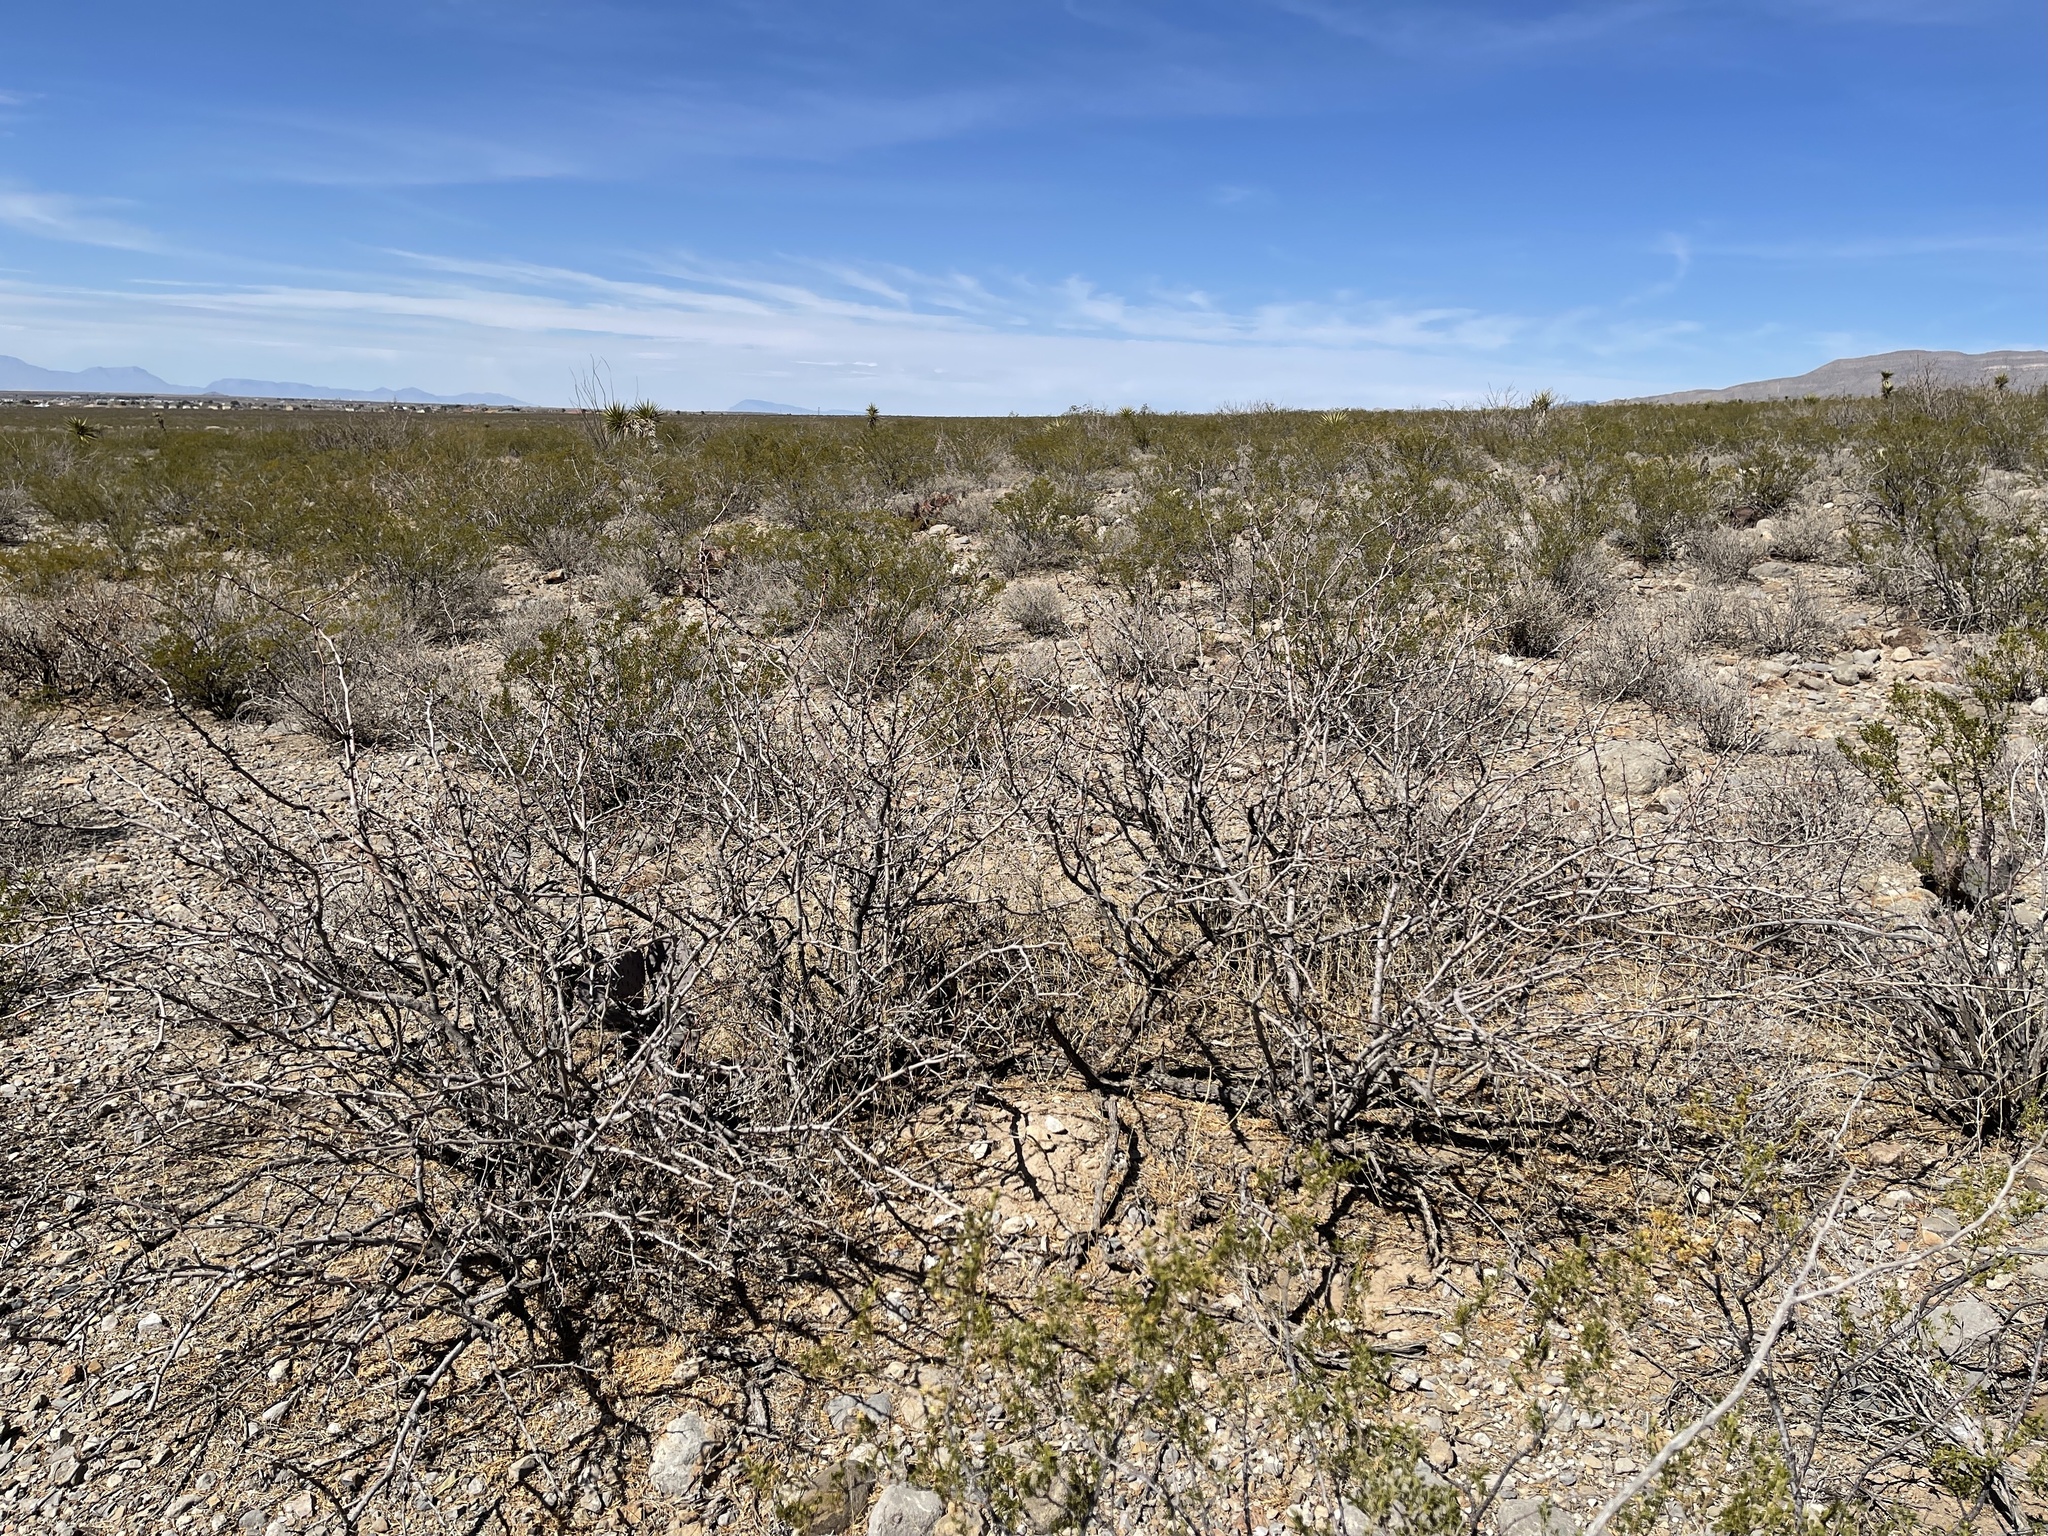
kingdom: Plantae
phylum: Tracheophyta
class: Magnoliopsida
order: Fabales
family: Fabaceae
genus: Prosopis
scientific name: Prosopis glandulosa
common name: Honey mesquite
